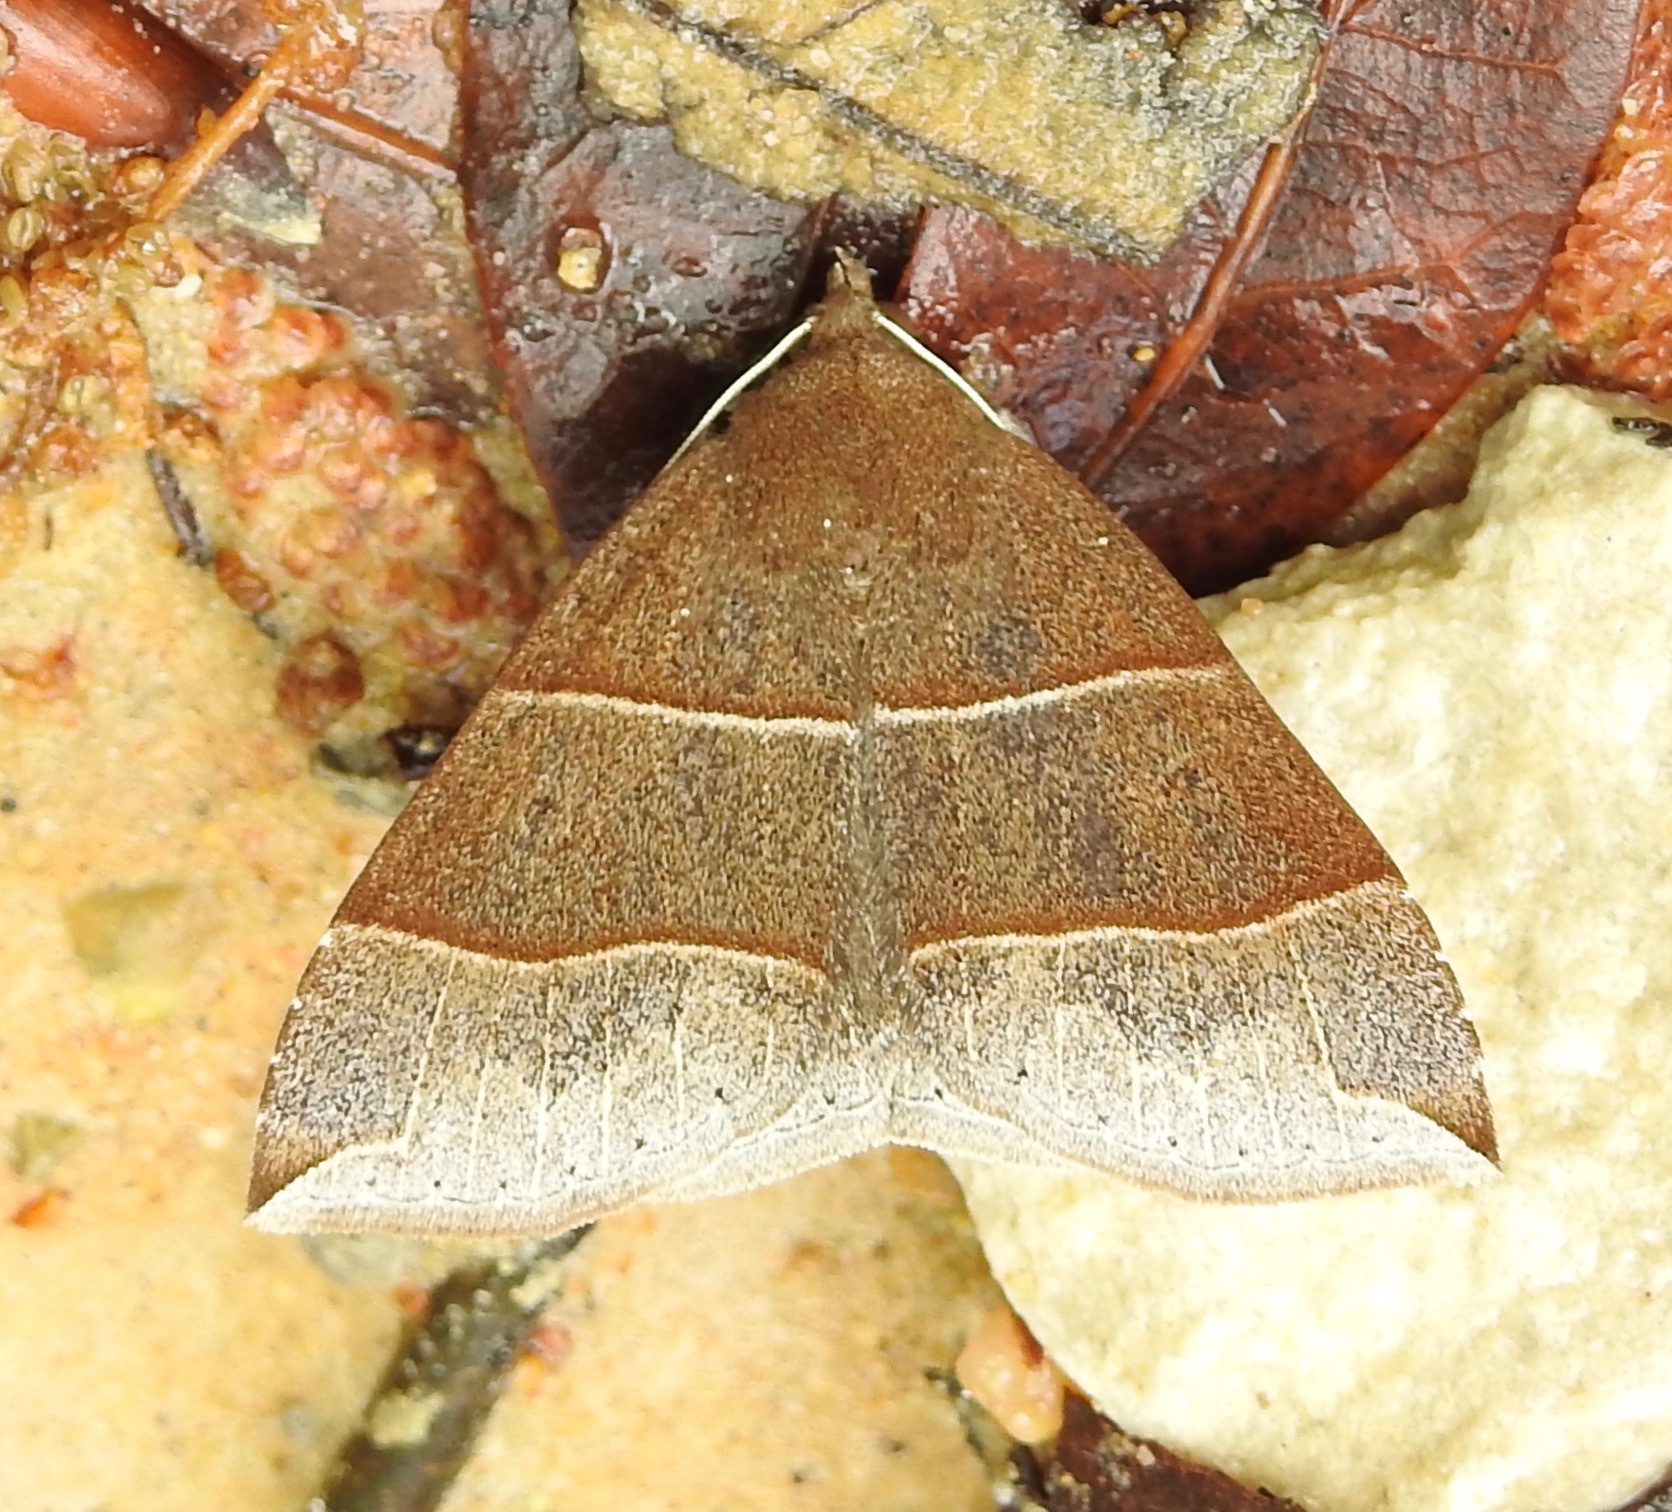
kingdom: Animalia
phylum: Arthropoda
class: Insecta
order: Lepidoptera
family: Erebidae
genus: Parallelia
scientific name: Parallelia bistriaris
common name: Maple looper moth
